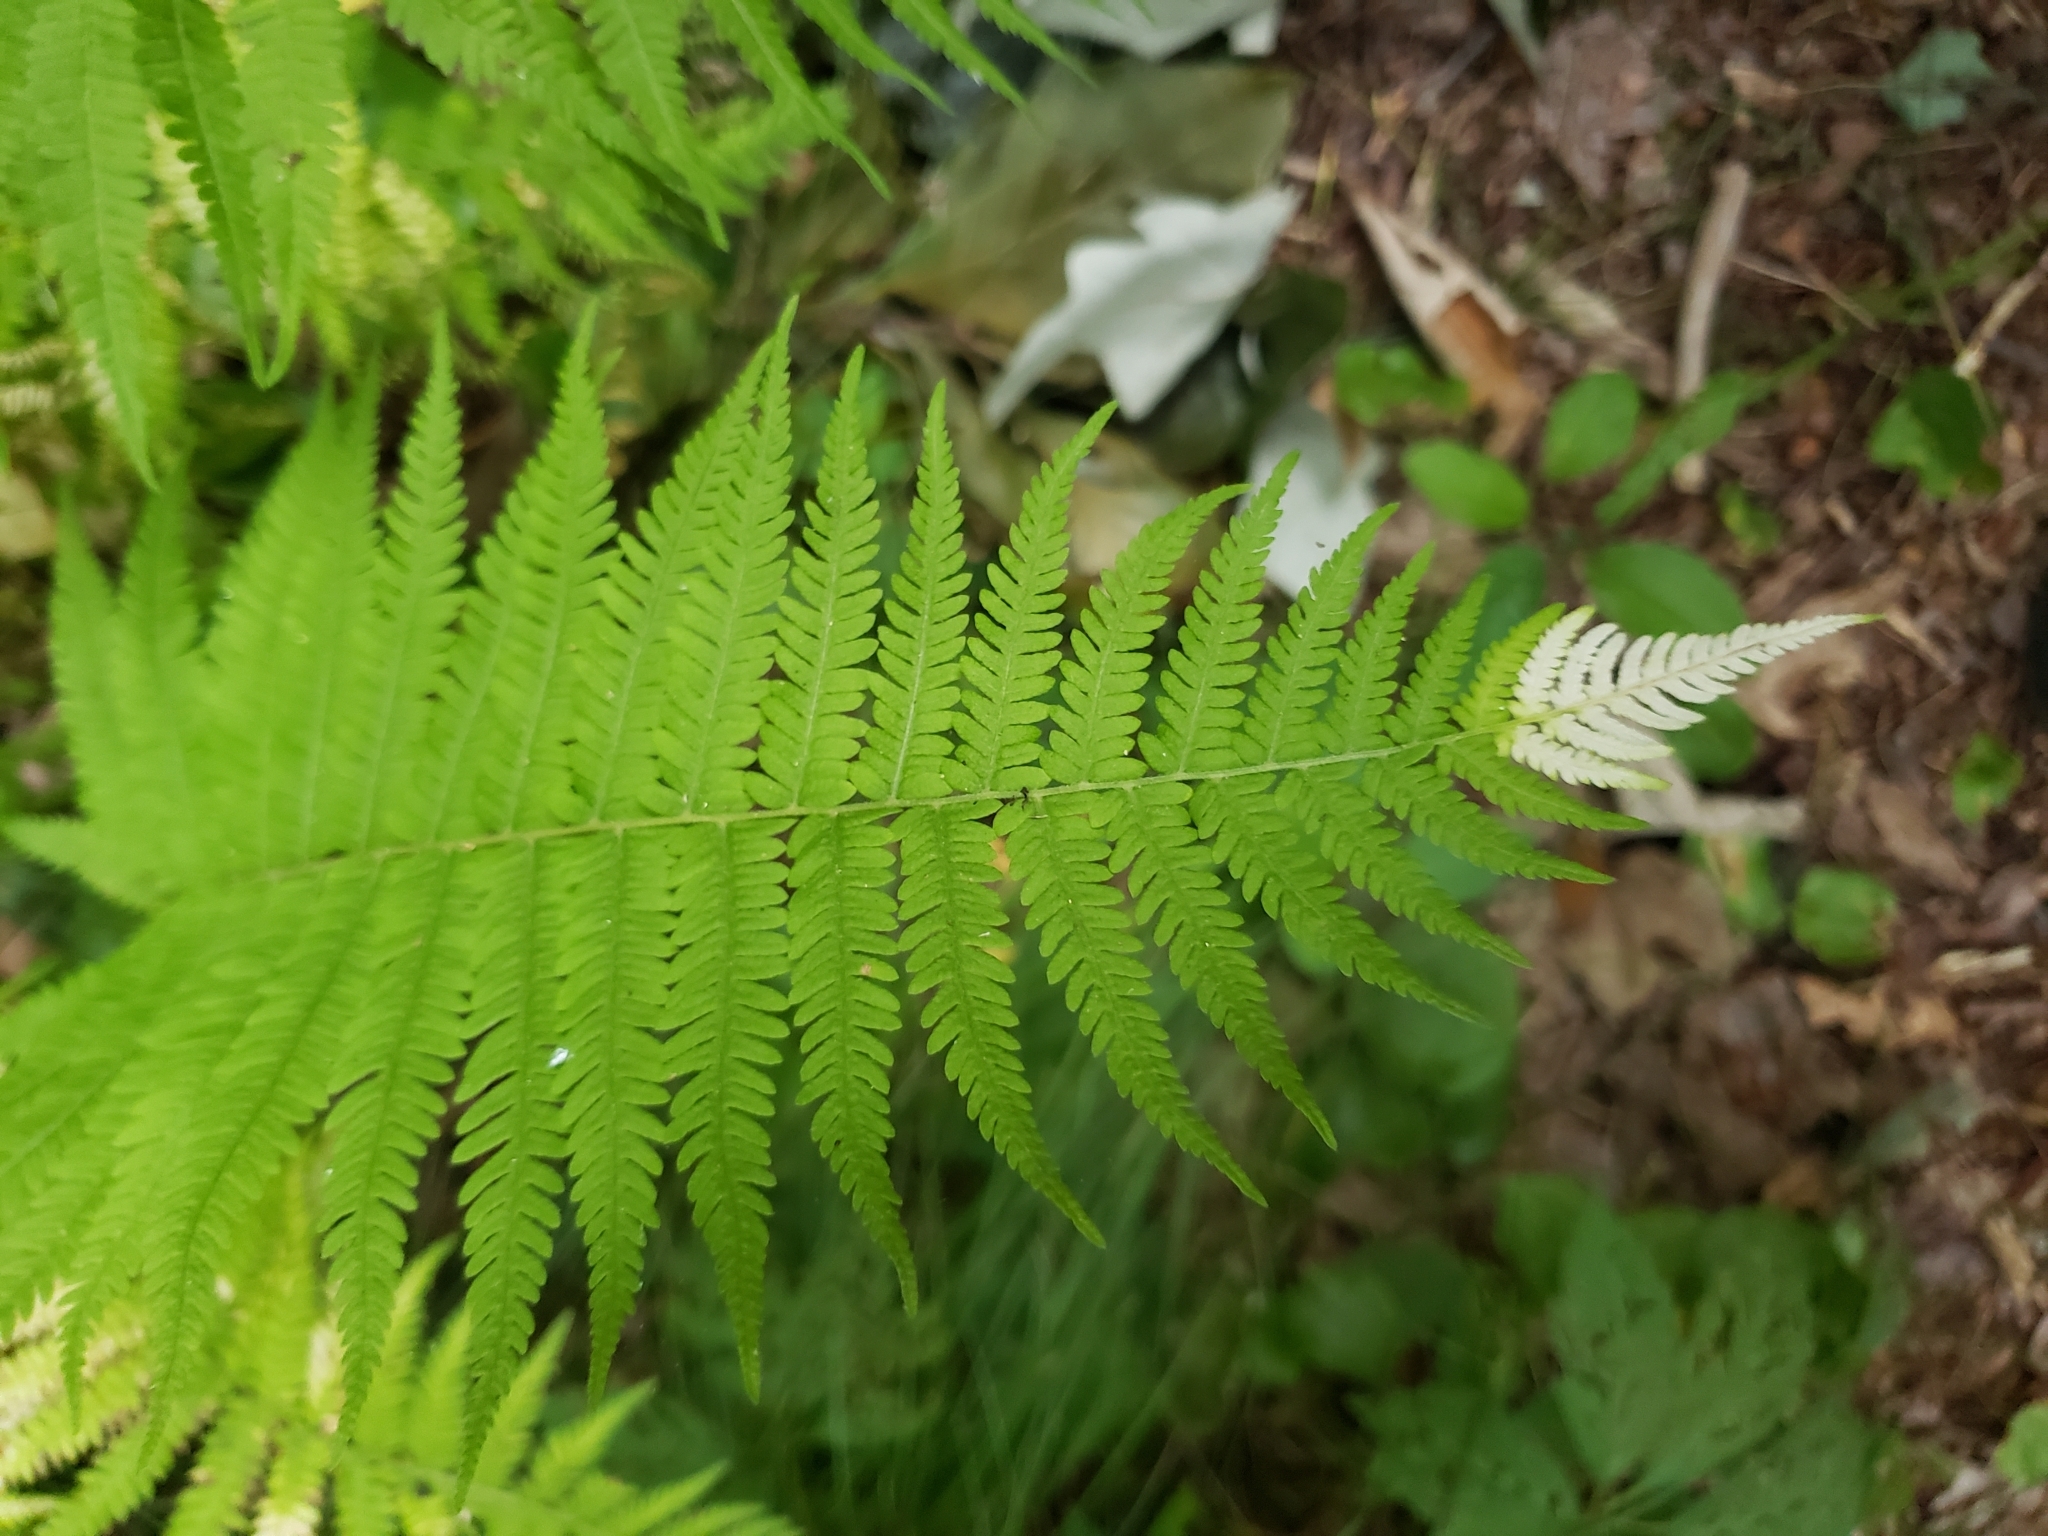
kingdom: Plantae
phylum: Tracheophyta
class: Polypodiopsida
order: Polypodiales
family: Thelypteridaceae
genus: Amauropelta
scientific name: Amauropelta noveboracensis
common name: New york fern
